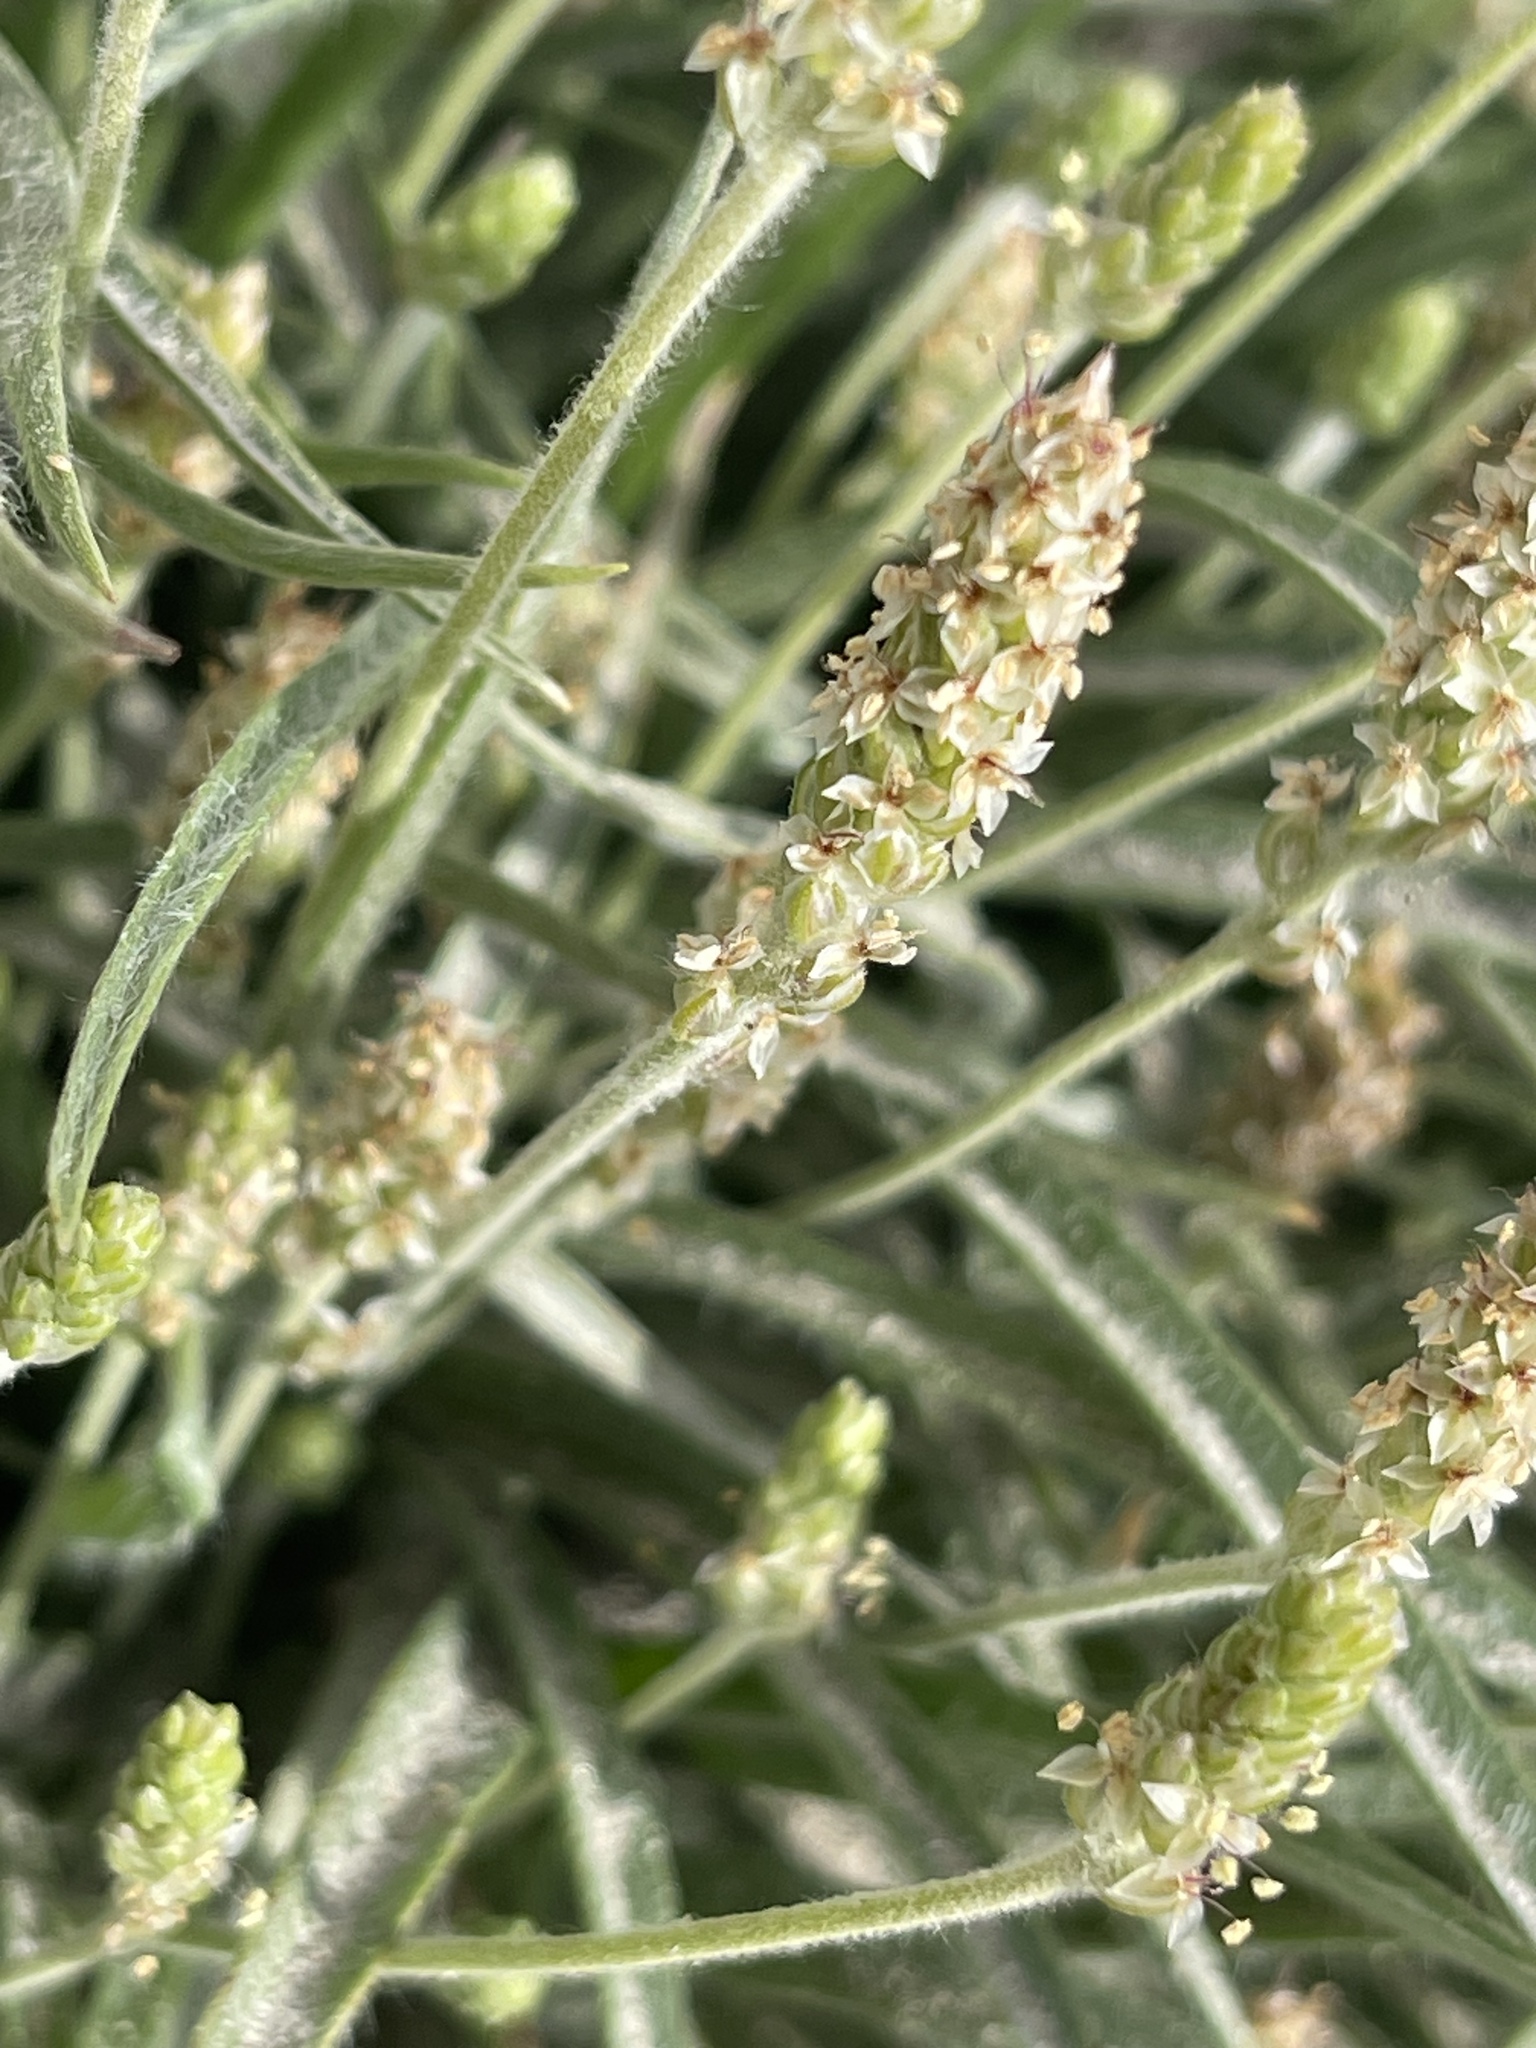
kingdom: Plantae
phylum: Tracheophyta
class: Magnoliopsida
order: Lamiales
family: Plantaginaceae
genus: Plantago
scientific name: Plantago ovata
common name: Blond plantain
